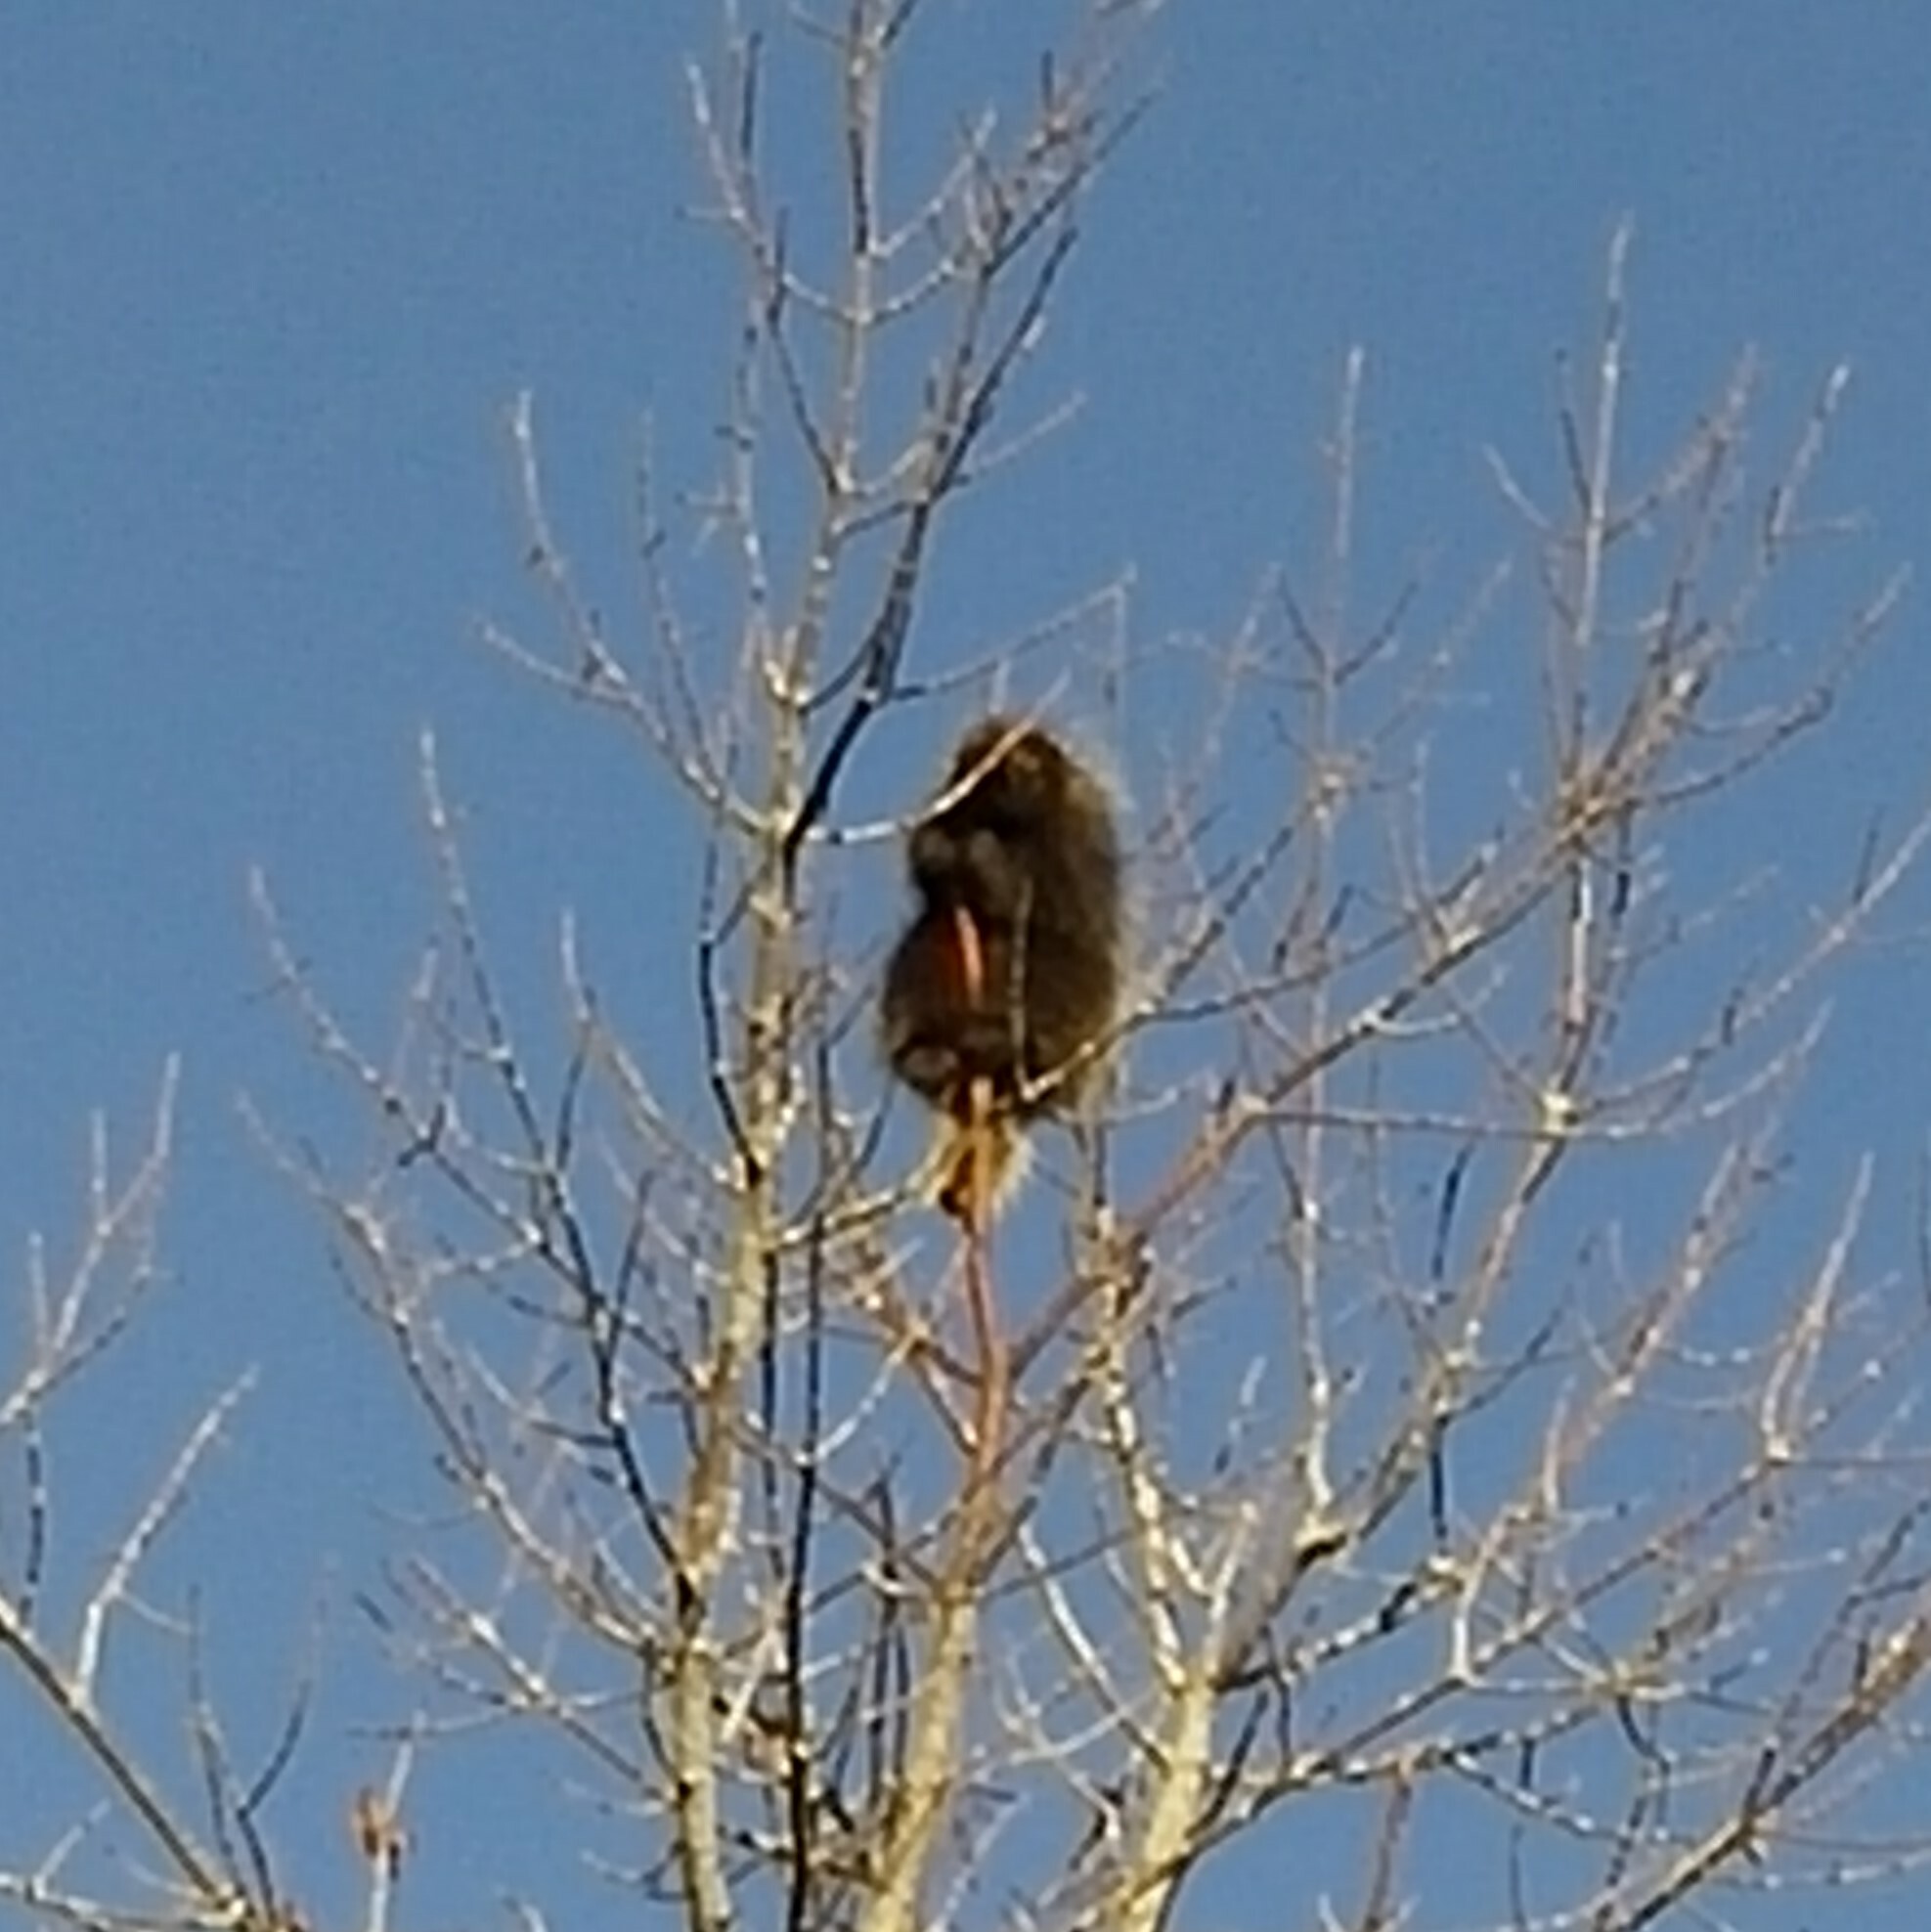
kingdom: Animalia
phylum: Chordata
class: Mammalia
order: Rodentia
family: Erethizontidae
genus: Erethizon
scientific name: Erethizon dorsatus
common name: North american porcupine
